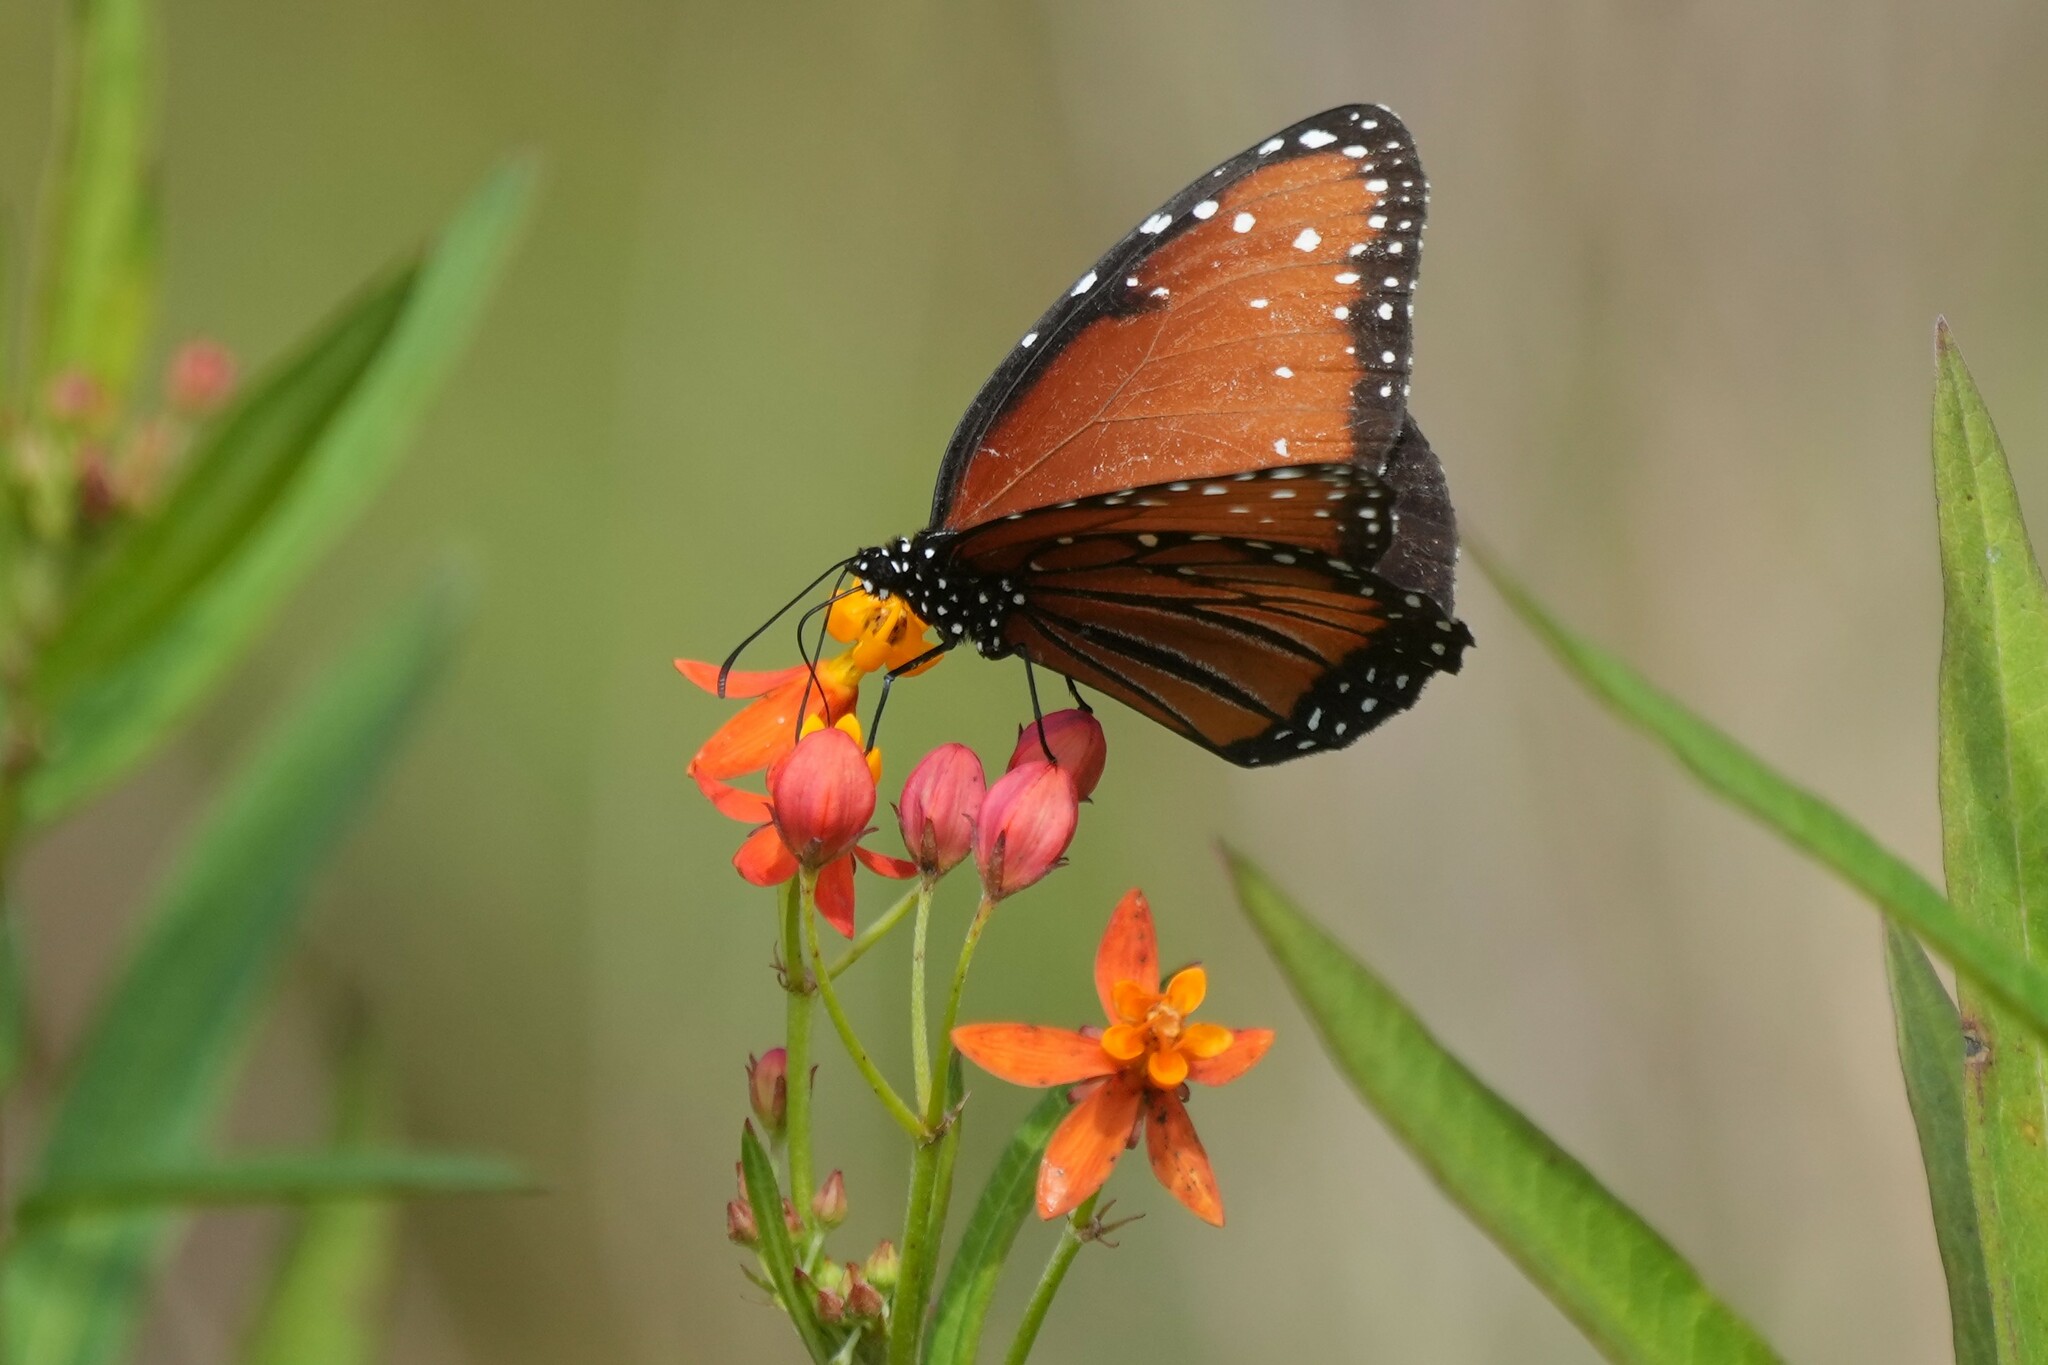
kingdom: Animalia
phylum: Arthropoda
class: Insecta
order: Lepidoptera
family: Nymphalidae
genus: Danaus
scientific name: Danaus gilippus
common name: Queen
